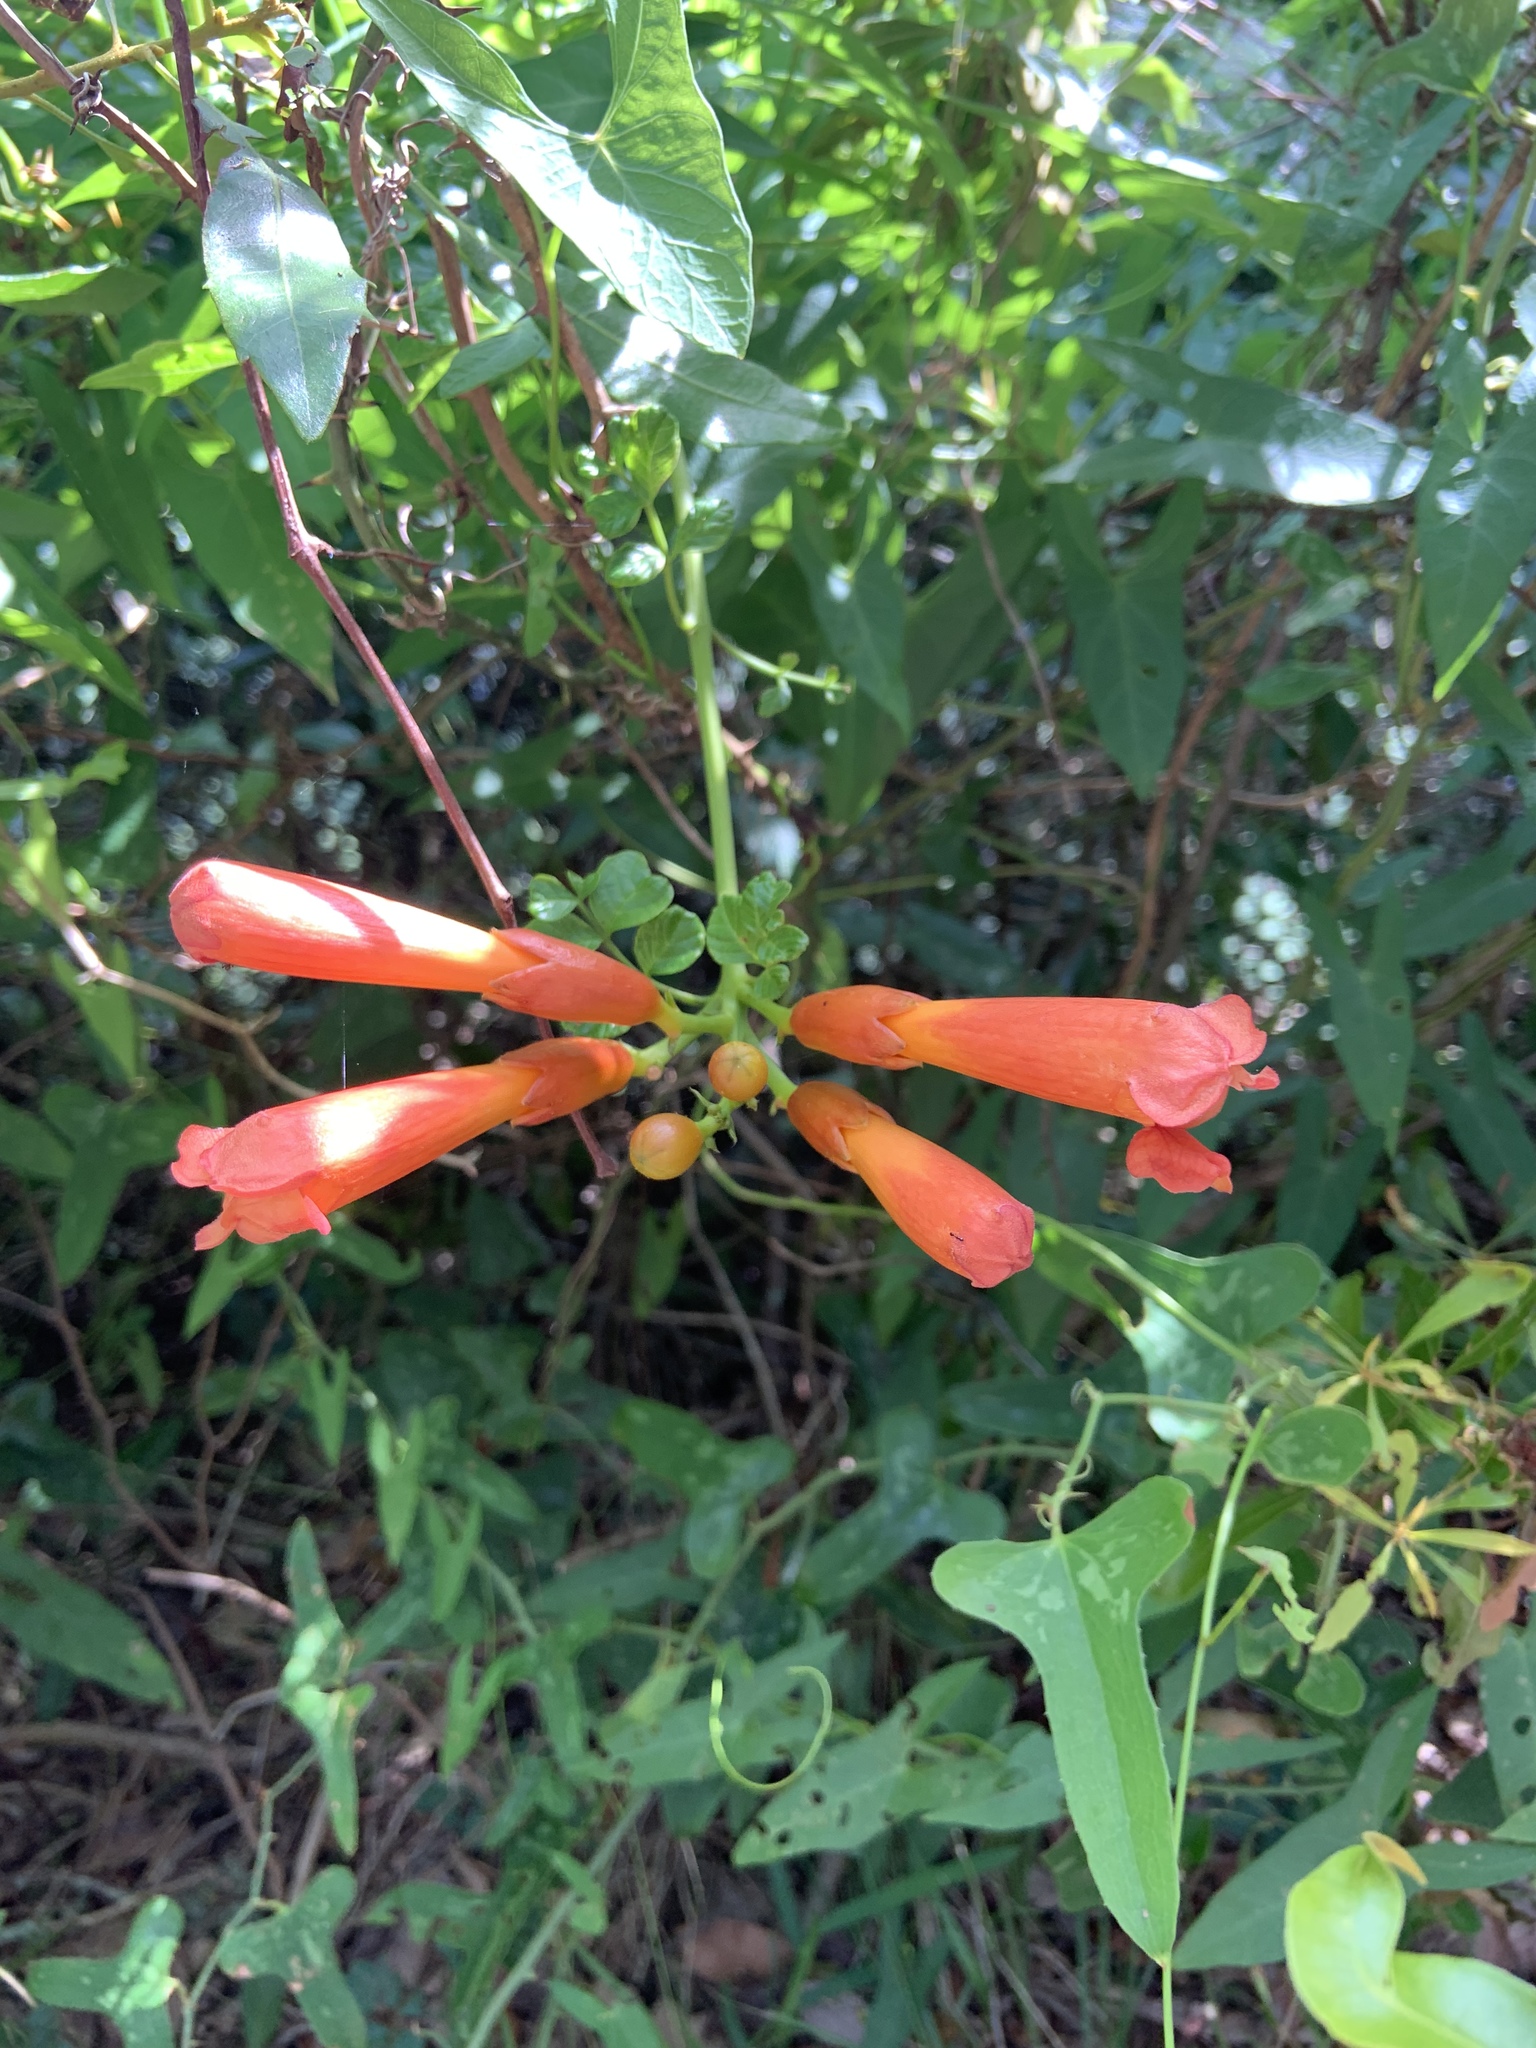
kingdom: Plantae
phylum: Tracheophyta
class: Magnoliopsida
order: Lamiales
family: Bignoniaceae
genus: Campsis
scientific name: Campsis radicans
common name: Trumpet-creeper
